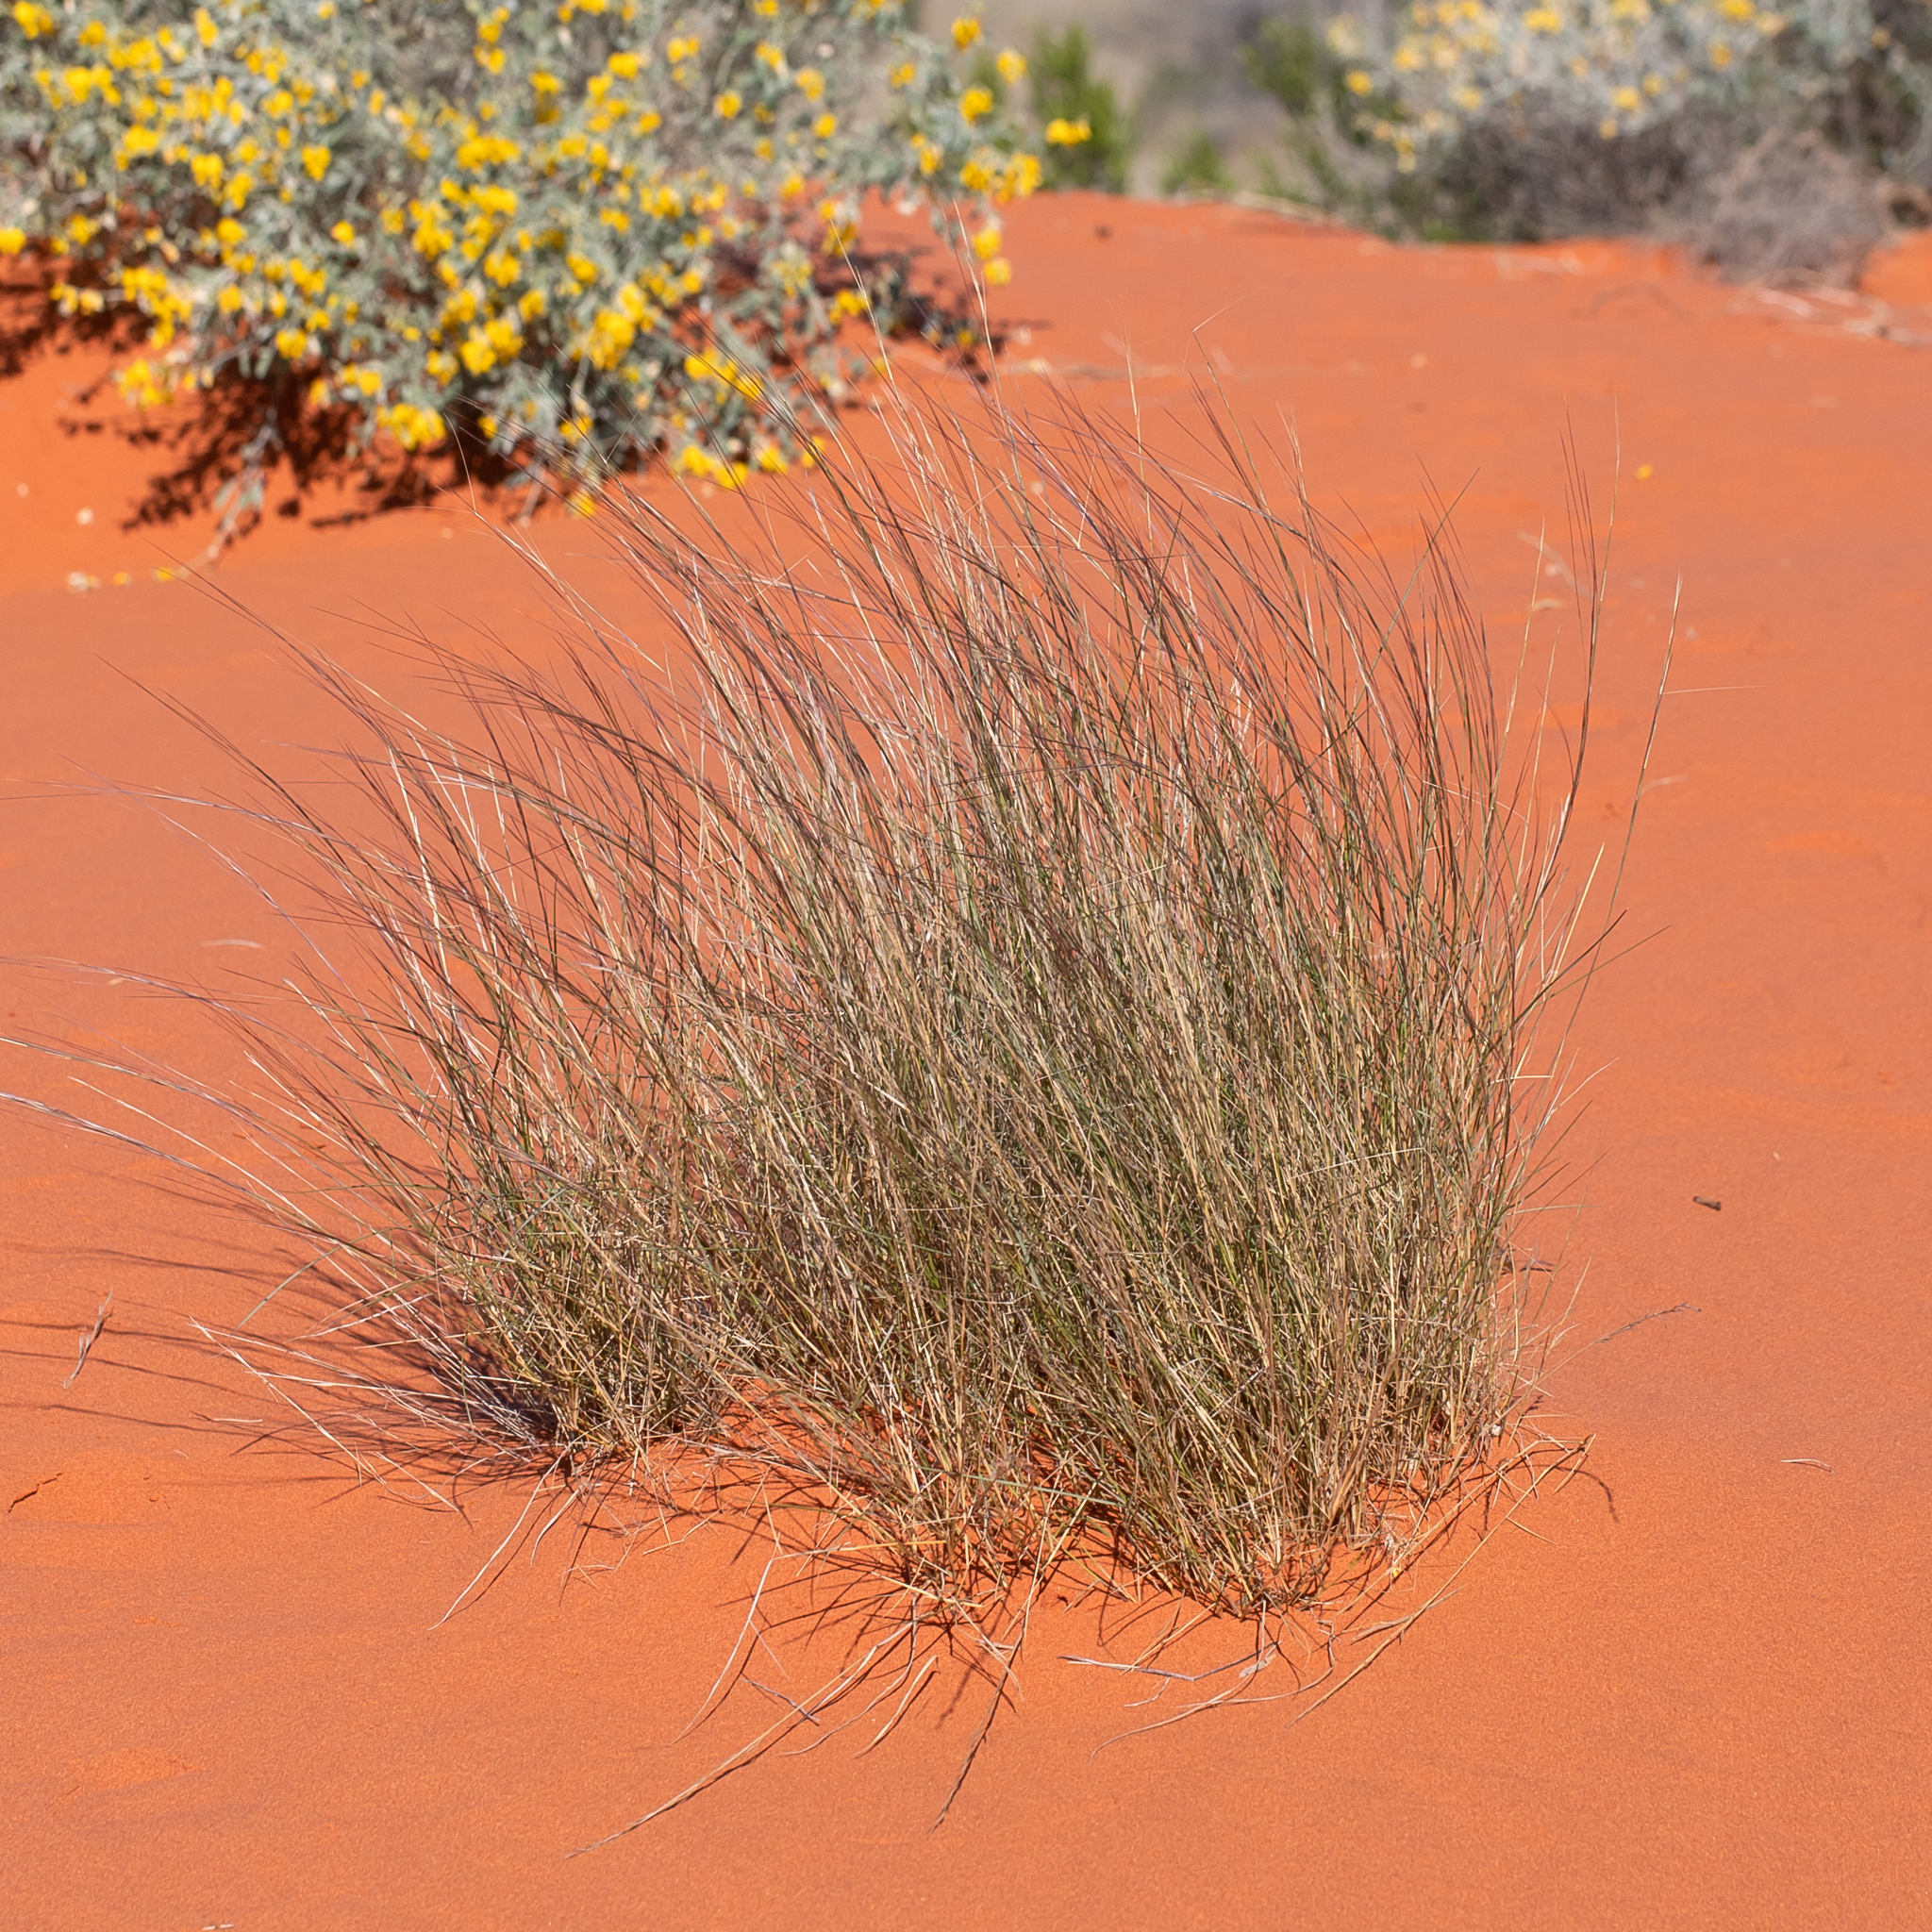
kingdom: Plantae
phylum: Tracheophyta
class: Liliopsida
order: Poales
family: Poaceae
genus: Aristida
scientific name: Aristida contorta
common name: Bunch kerosene grass
